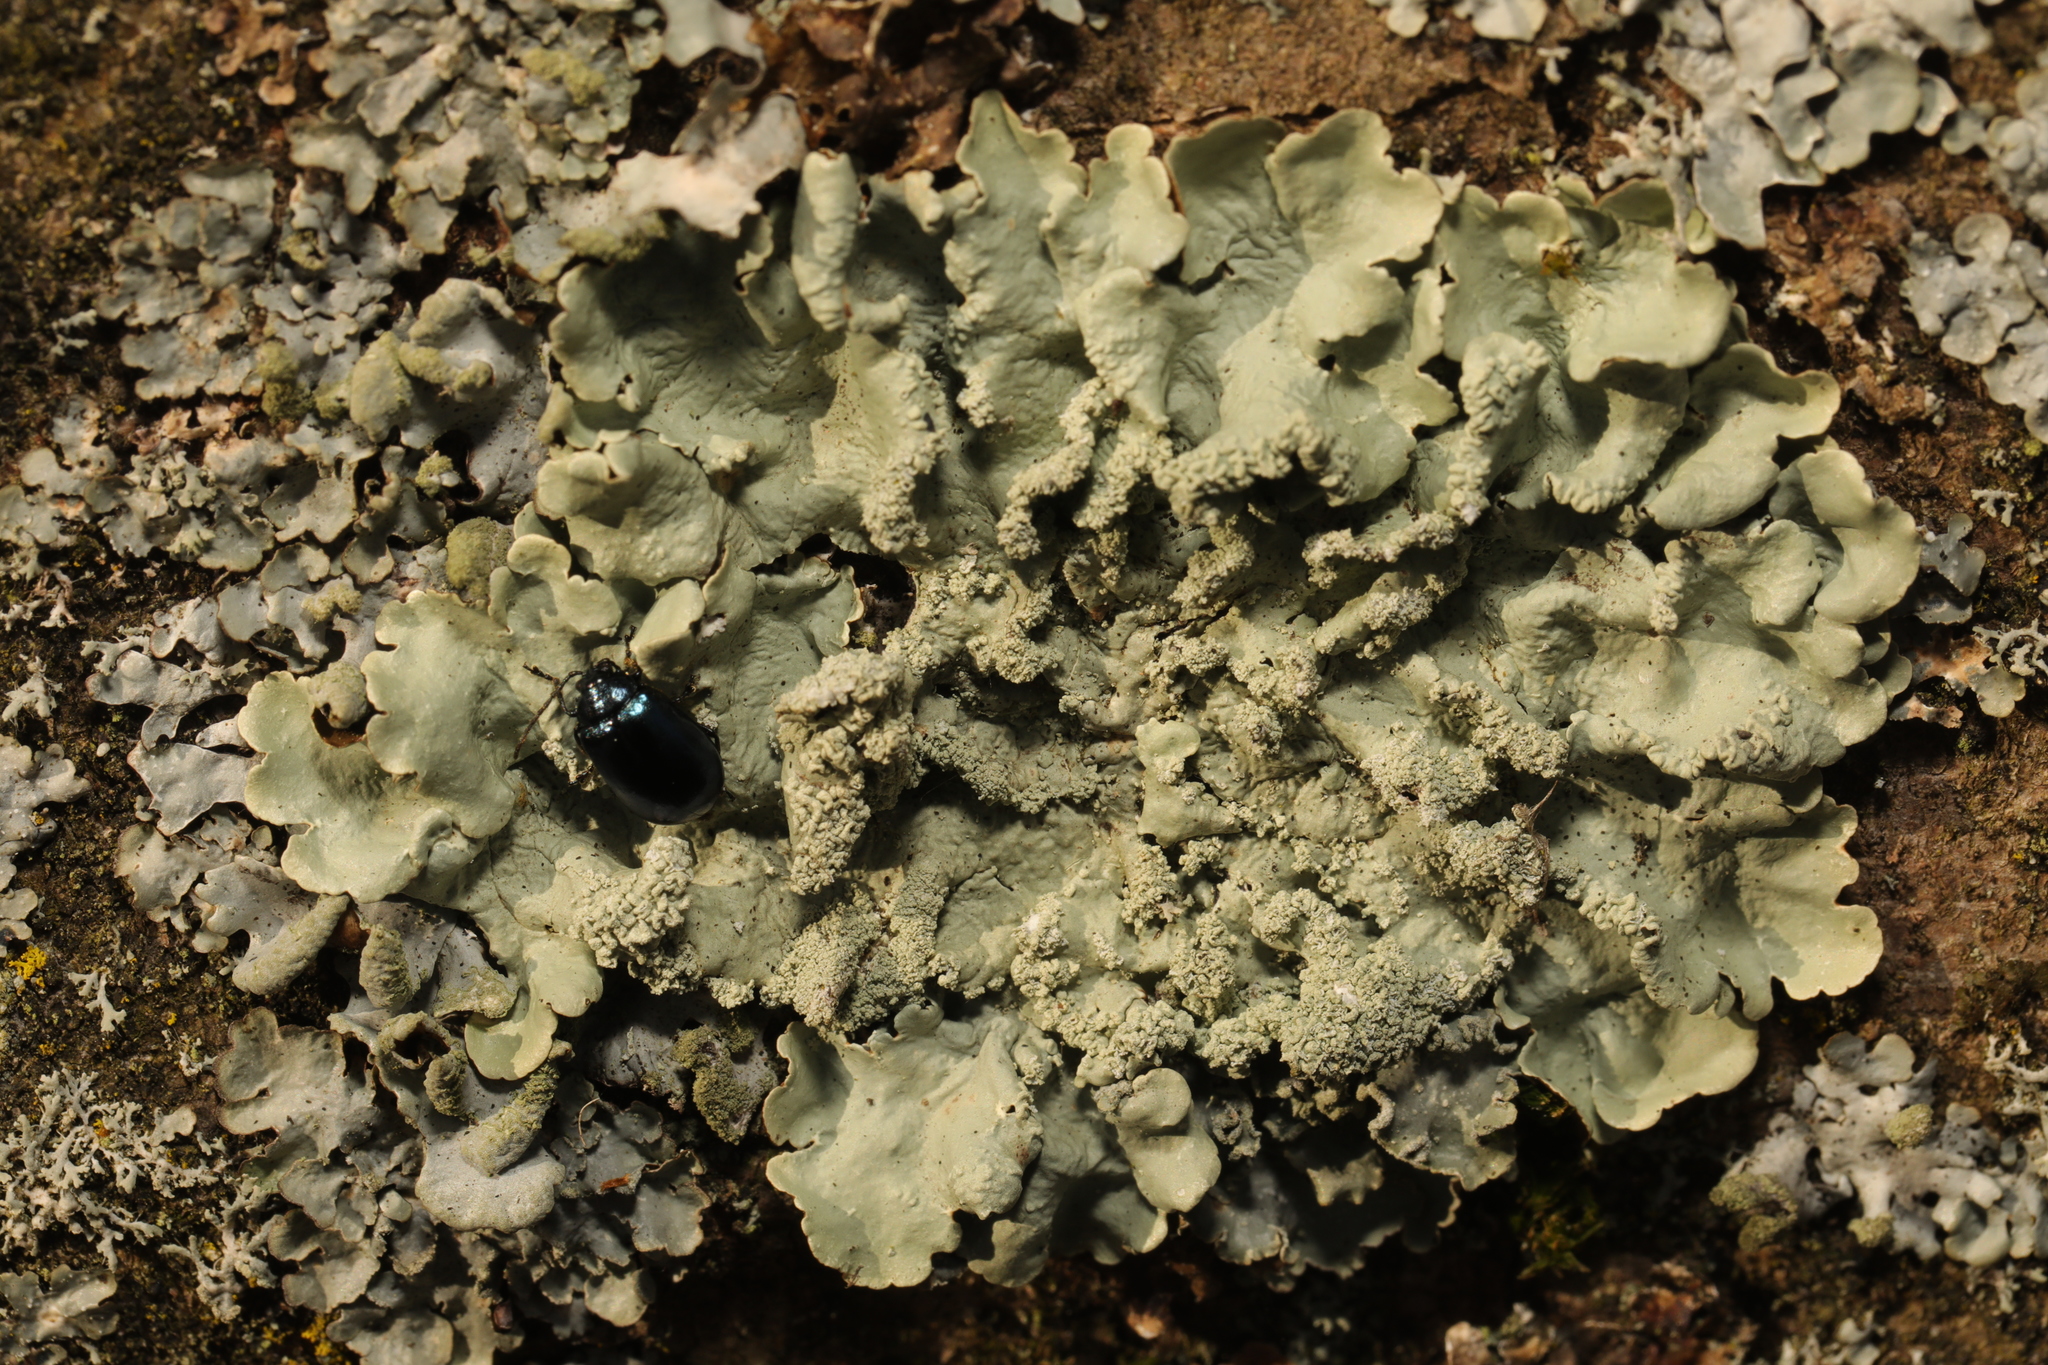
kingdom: Fungi
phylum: Ascomycota
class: Lecanoromycetes
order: Lecanorales
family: Parmeliaceae
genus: Flavoparmelia
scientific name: Flavoparmelia caperata
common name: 40-mile per hour lichen
